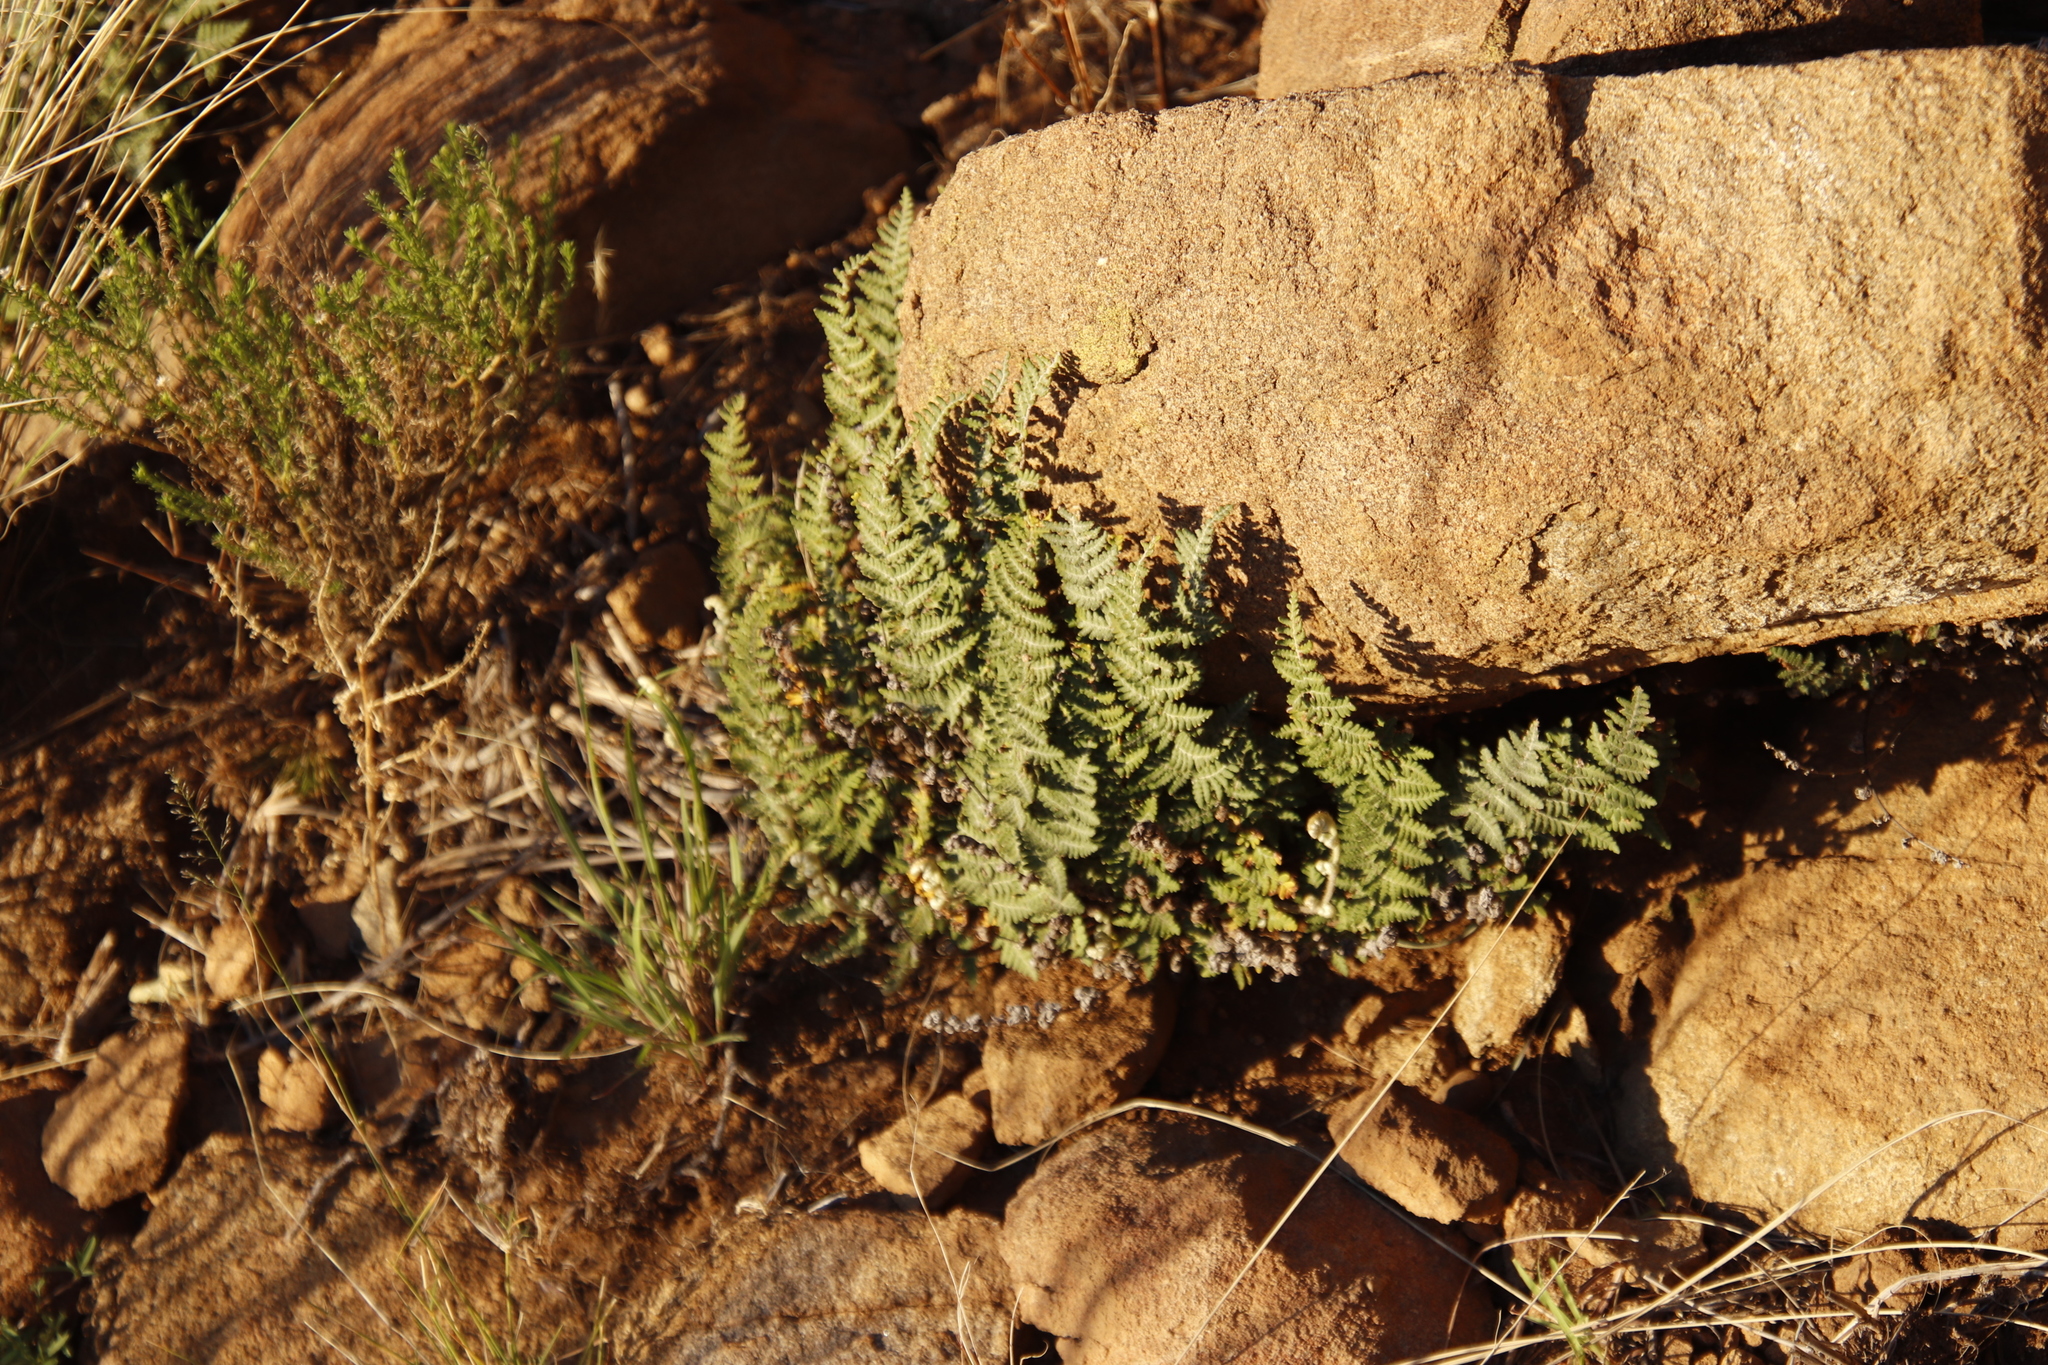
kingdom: Plantae
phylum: Tracheophyta
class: Polypodiopsida
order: Polypodiales
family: Pteridaceae
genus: Cheilanthes
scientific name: Cheilanthes eckloniana
